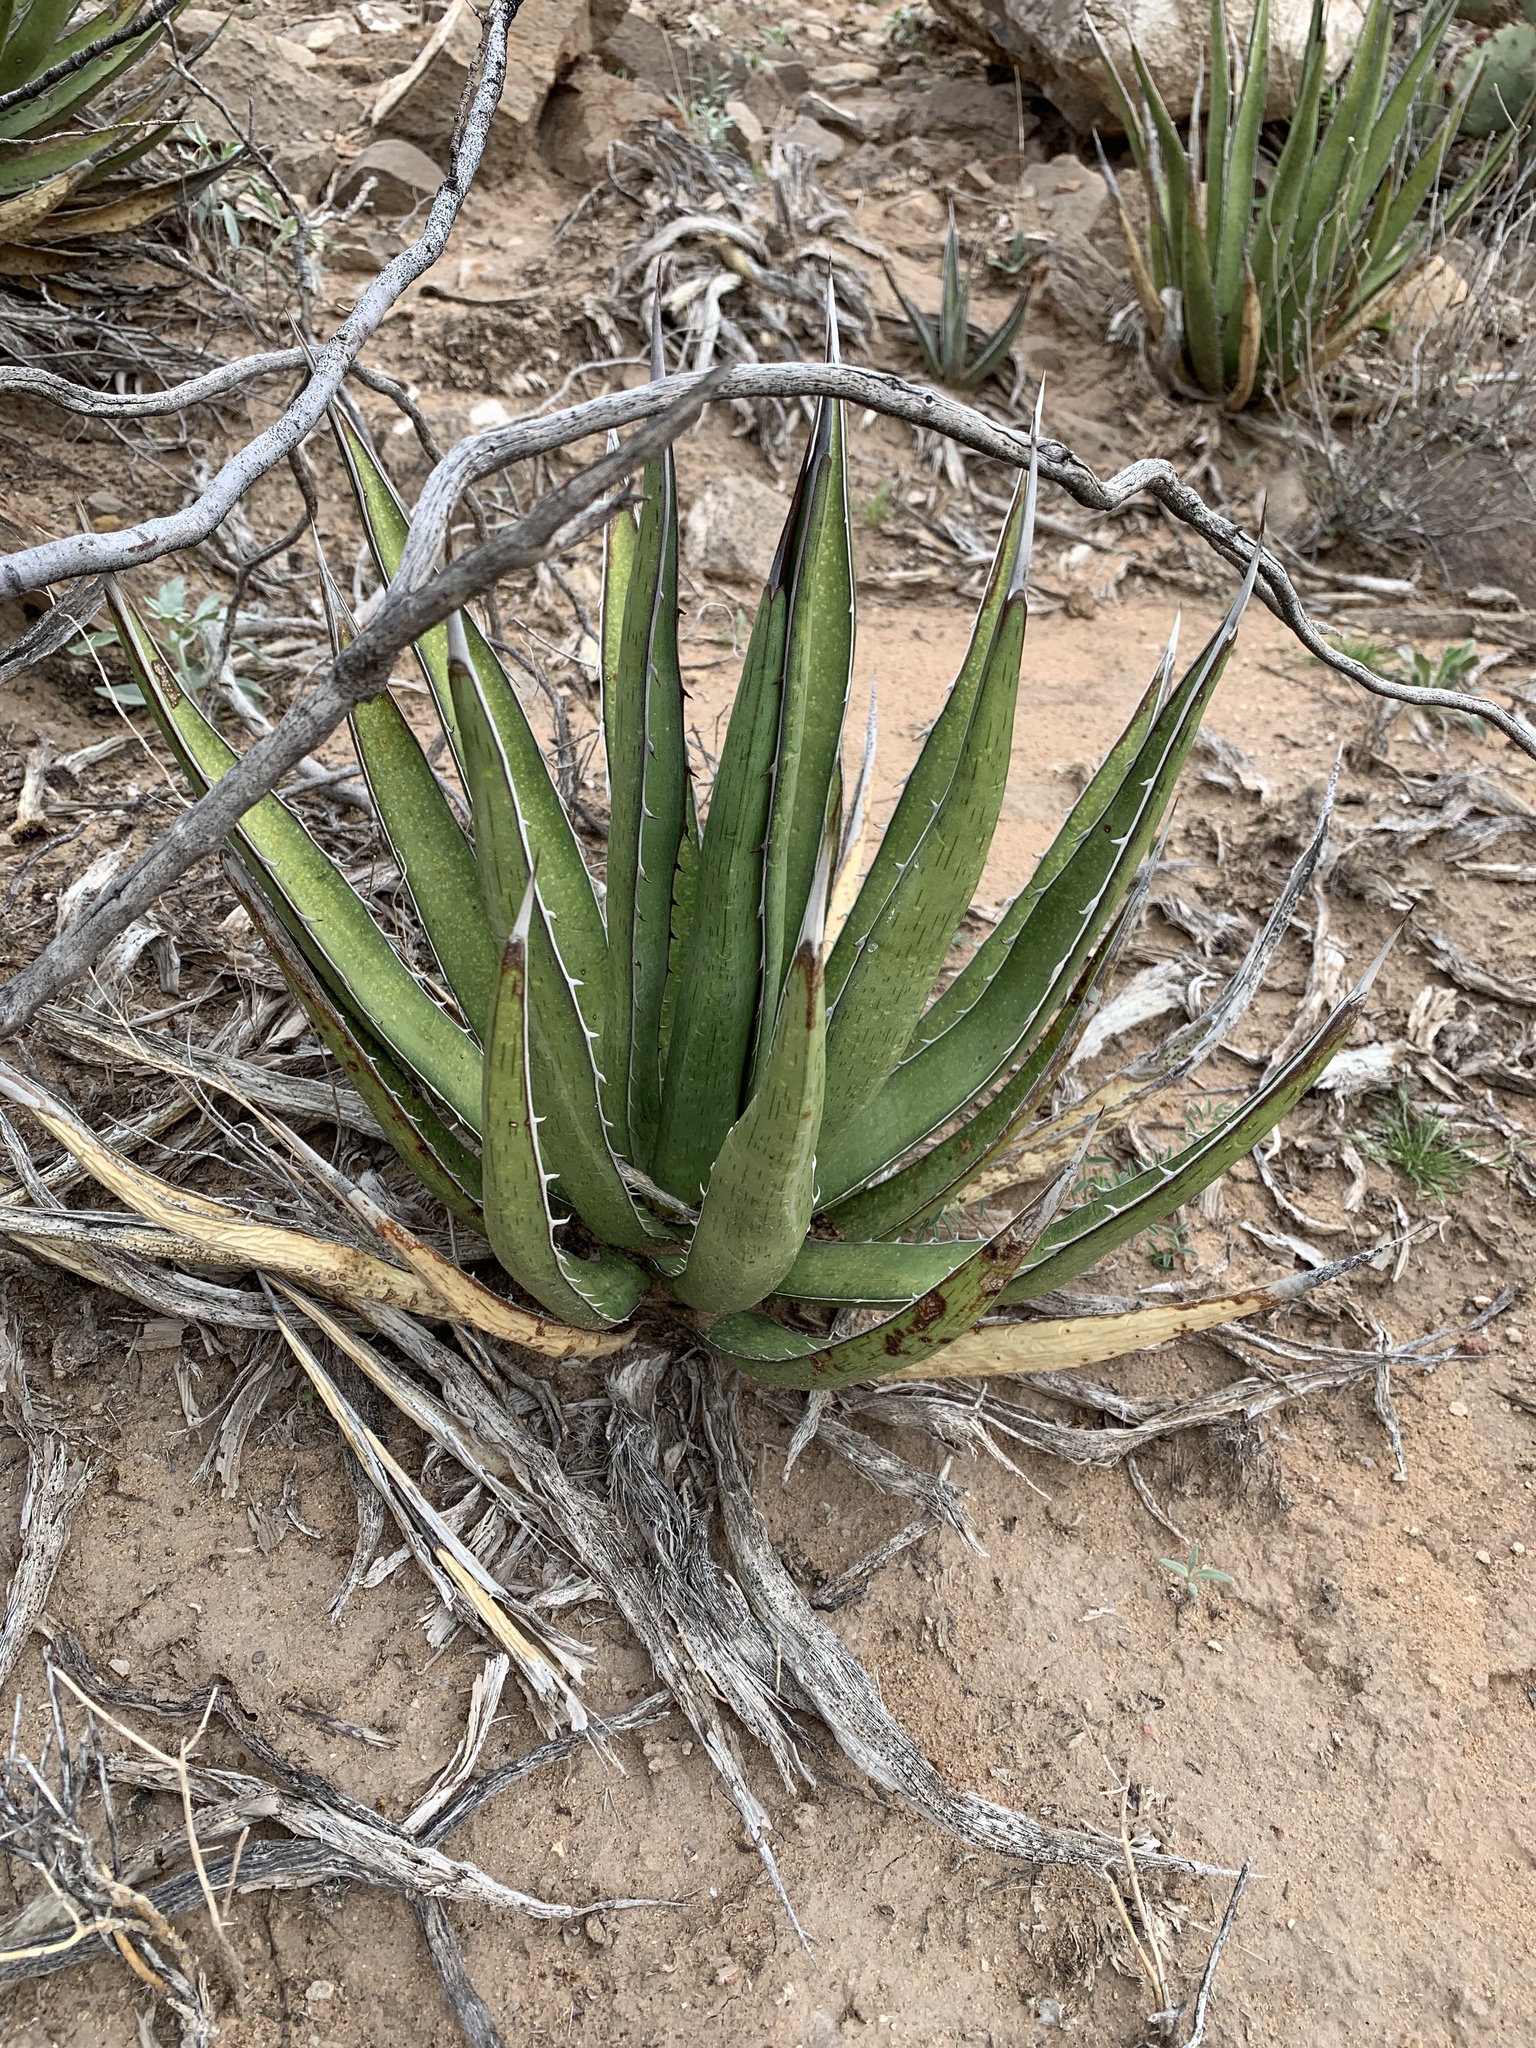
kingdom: Plantae
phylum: Tracheophyta
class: Liliopsida
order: Asparagales
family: Asparagaceae
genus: Agave
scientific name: Agave lechuguilla
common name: Lecheguilla agave
